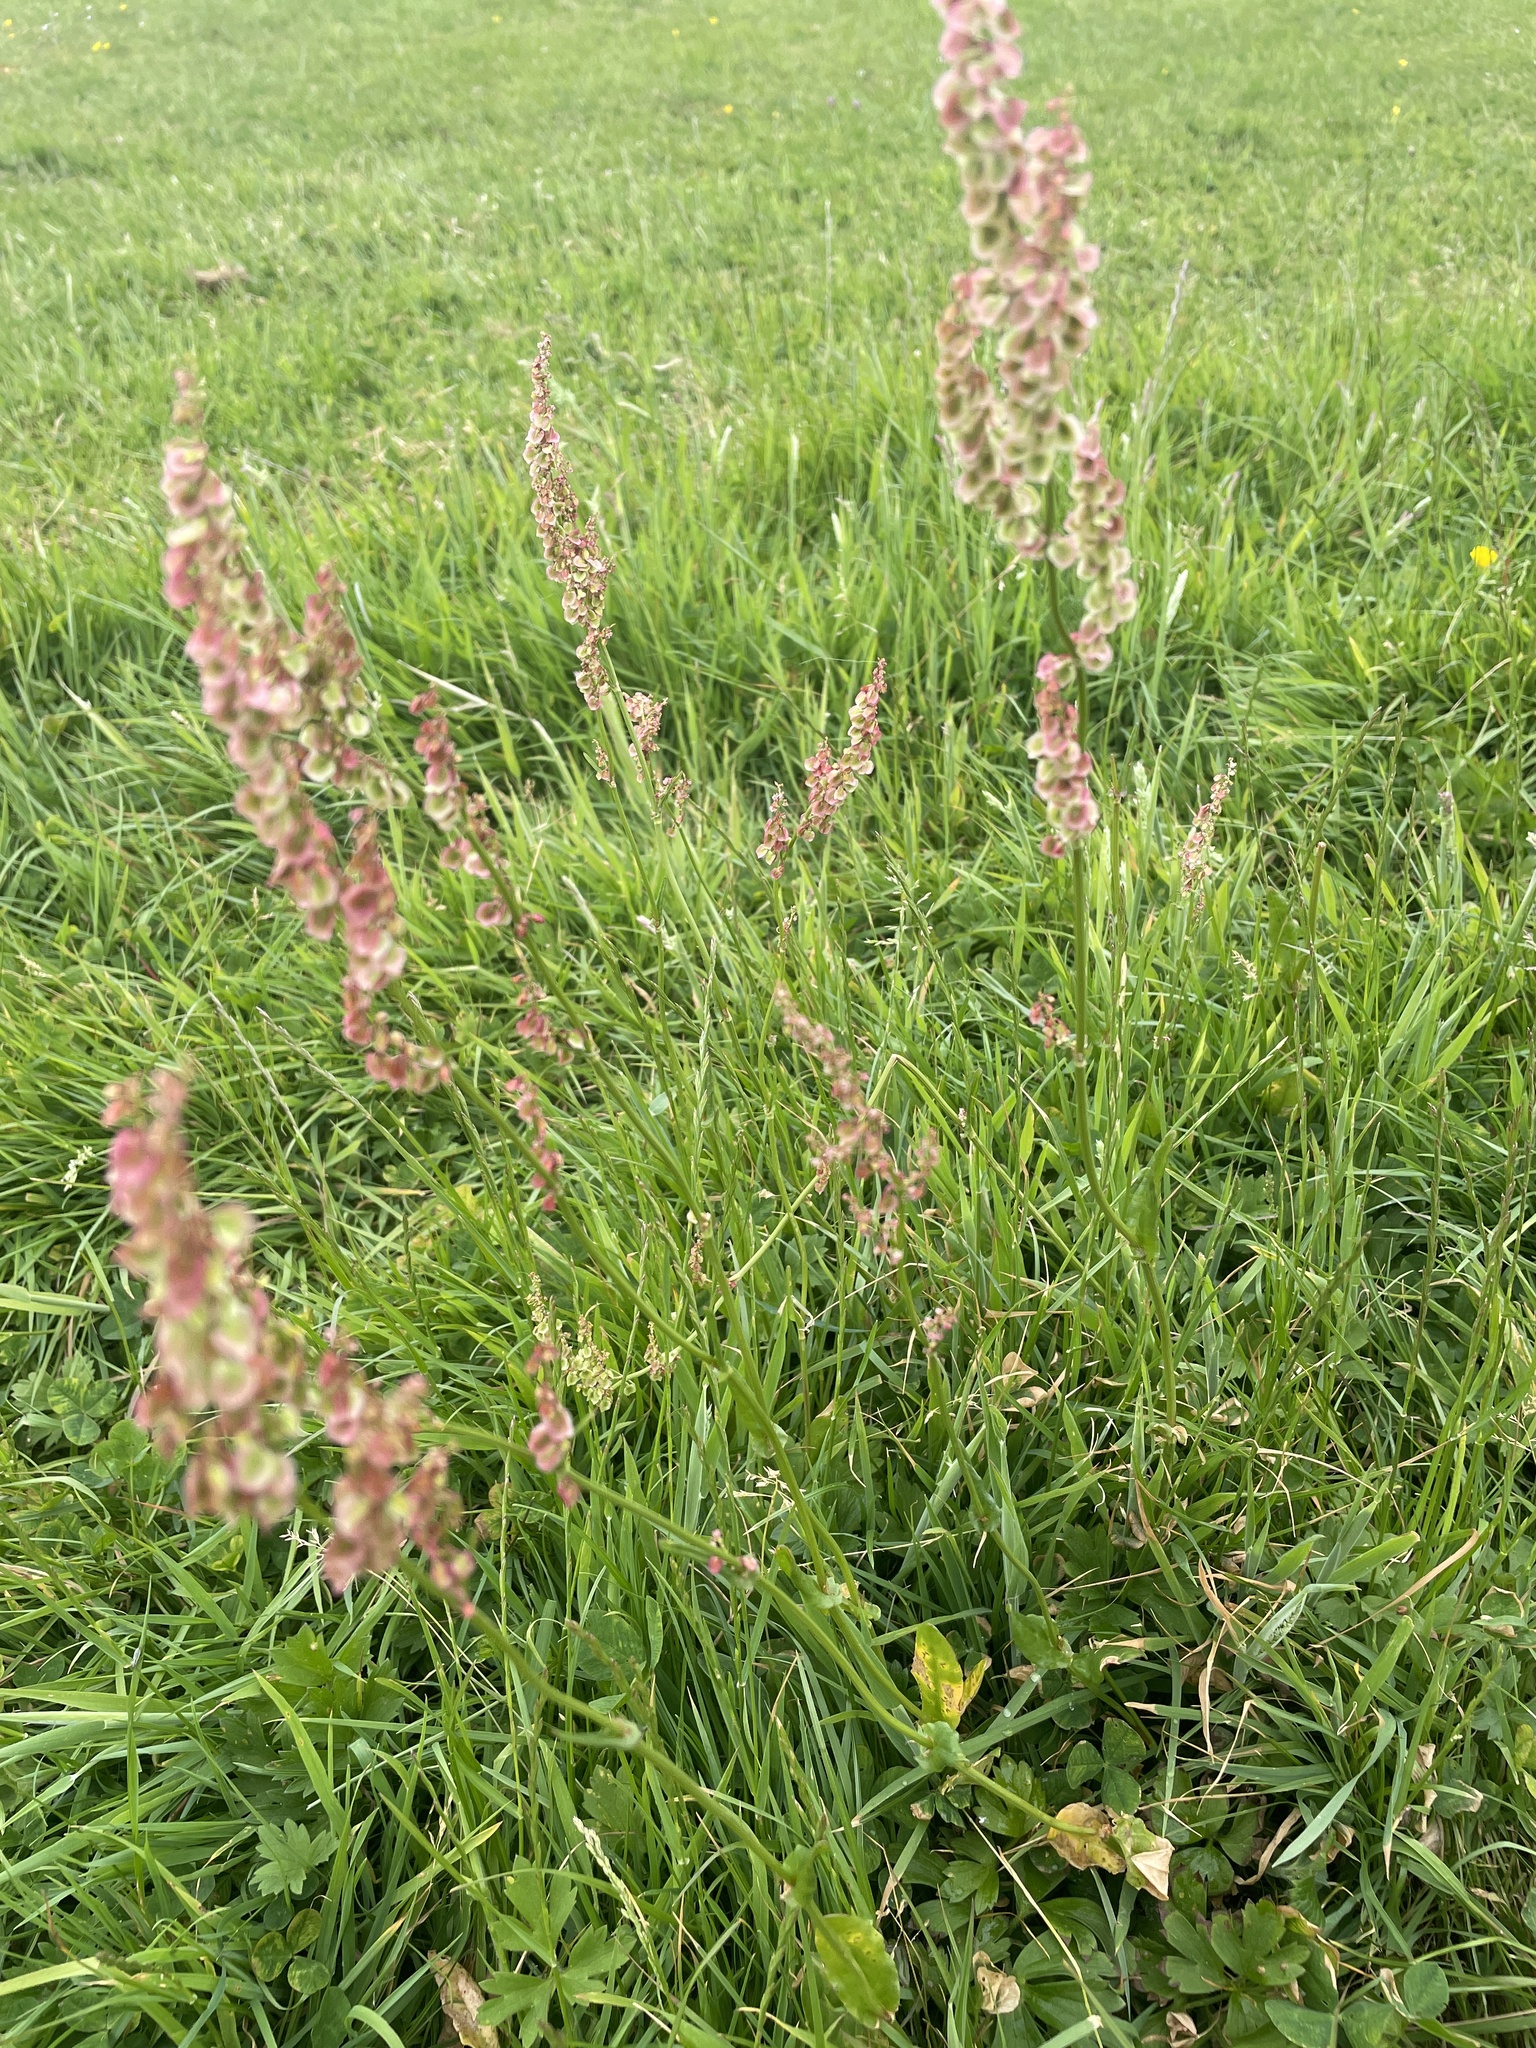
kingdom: Plantae
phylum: Tracheophyta
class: Magnoliopsida
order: Caryophyllales
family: Polygonaceae
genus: Rumex
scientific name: Rumex acetosa
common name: Garden sorrel
